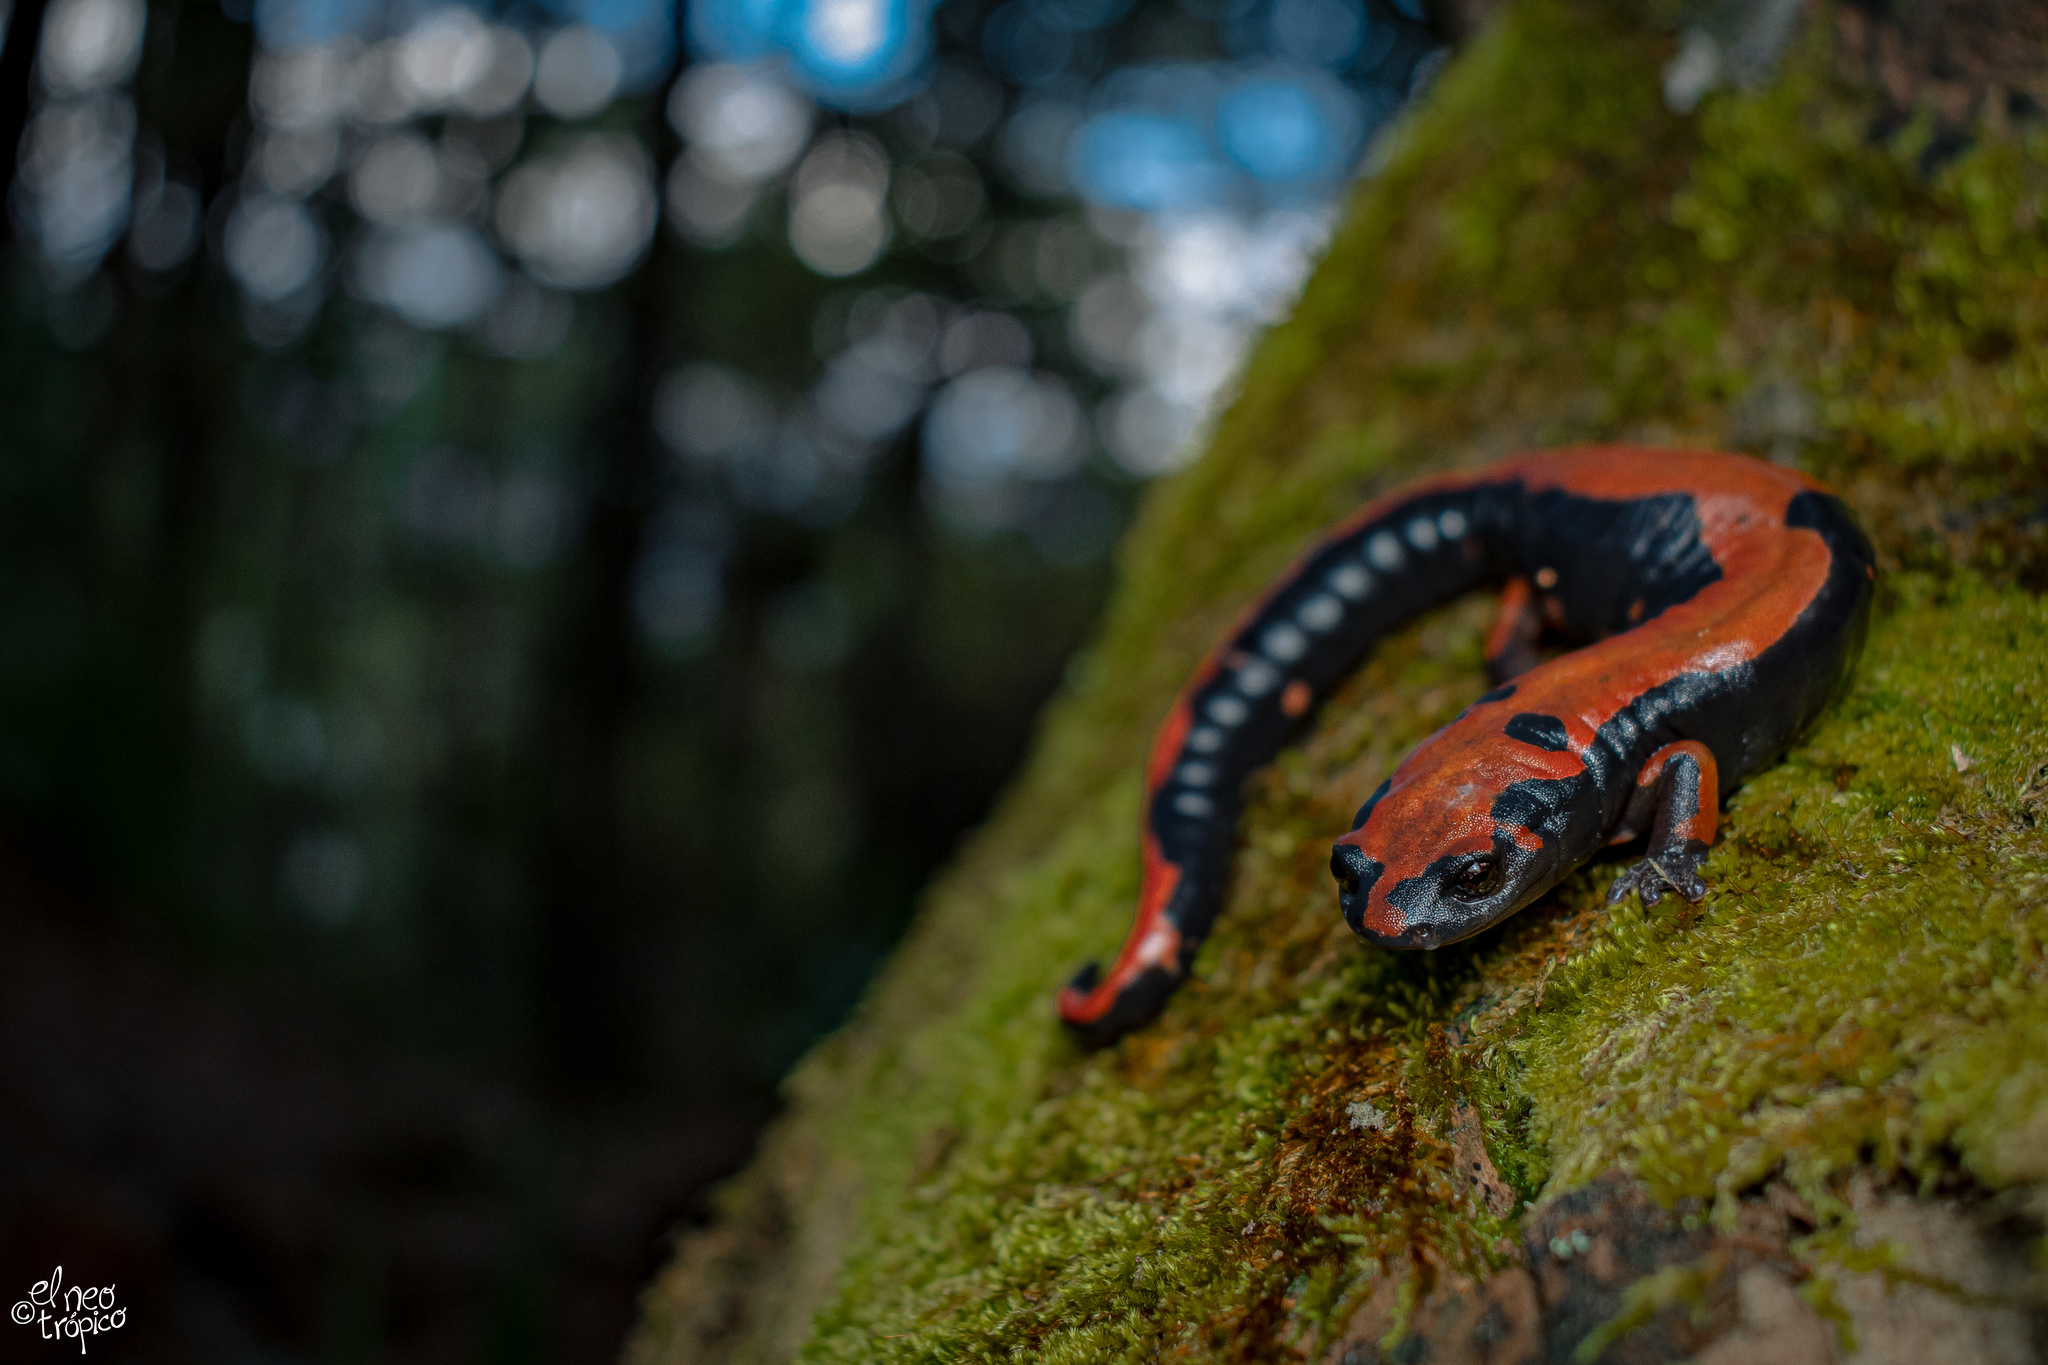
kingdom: Animalia
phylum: Chordata
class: Amphibia
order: Caudata
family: Plethodontidae
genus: Bolitoglossa
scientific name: Bolitoglossa lincolni
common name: Lincoln's mushroomtongue salamander
